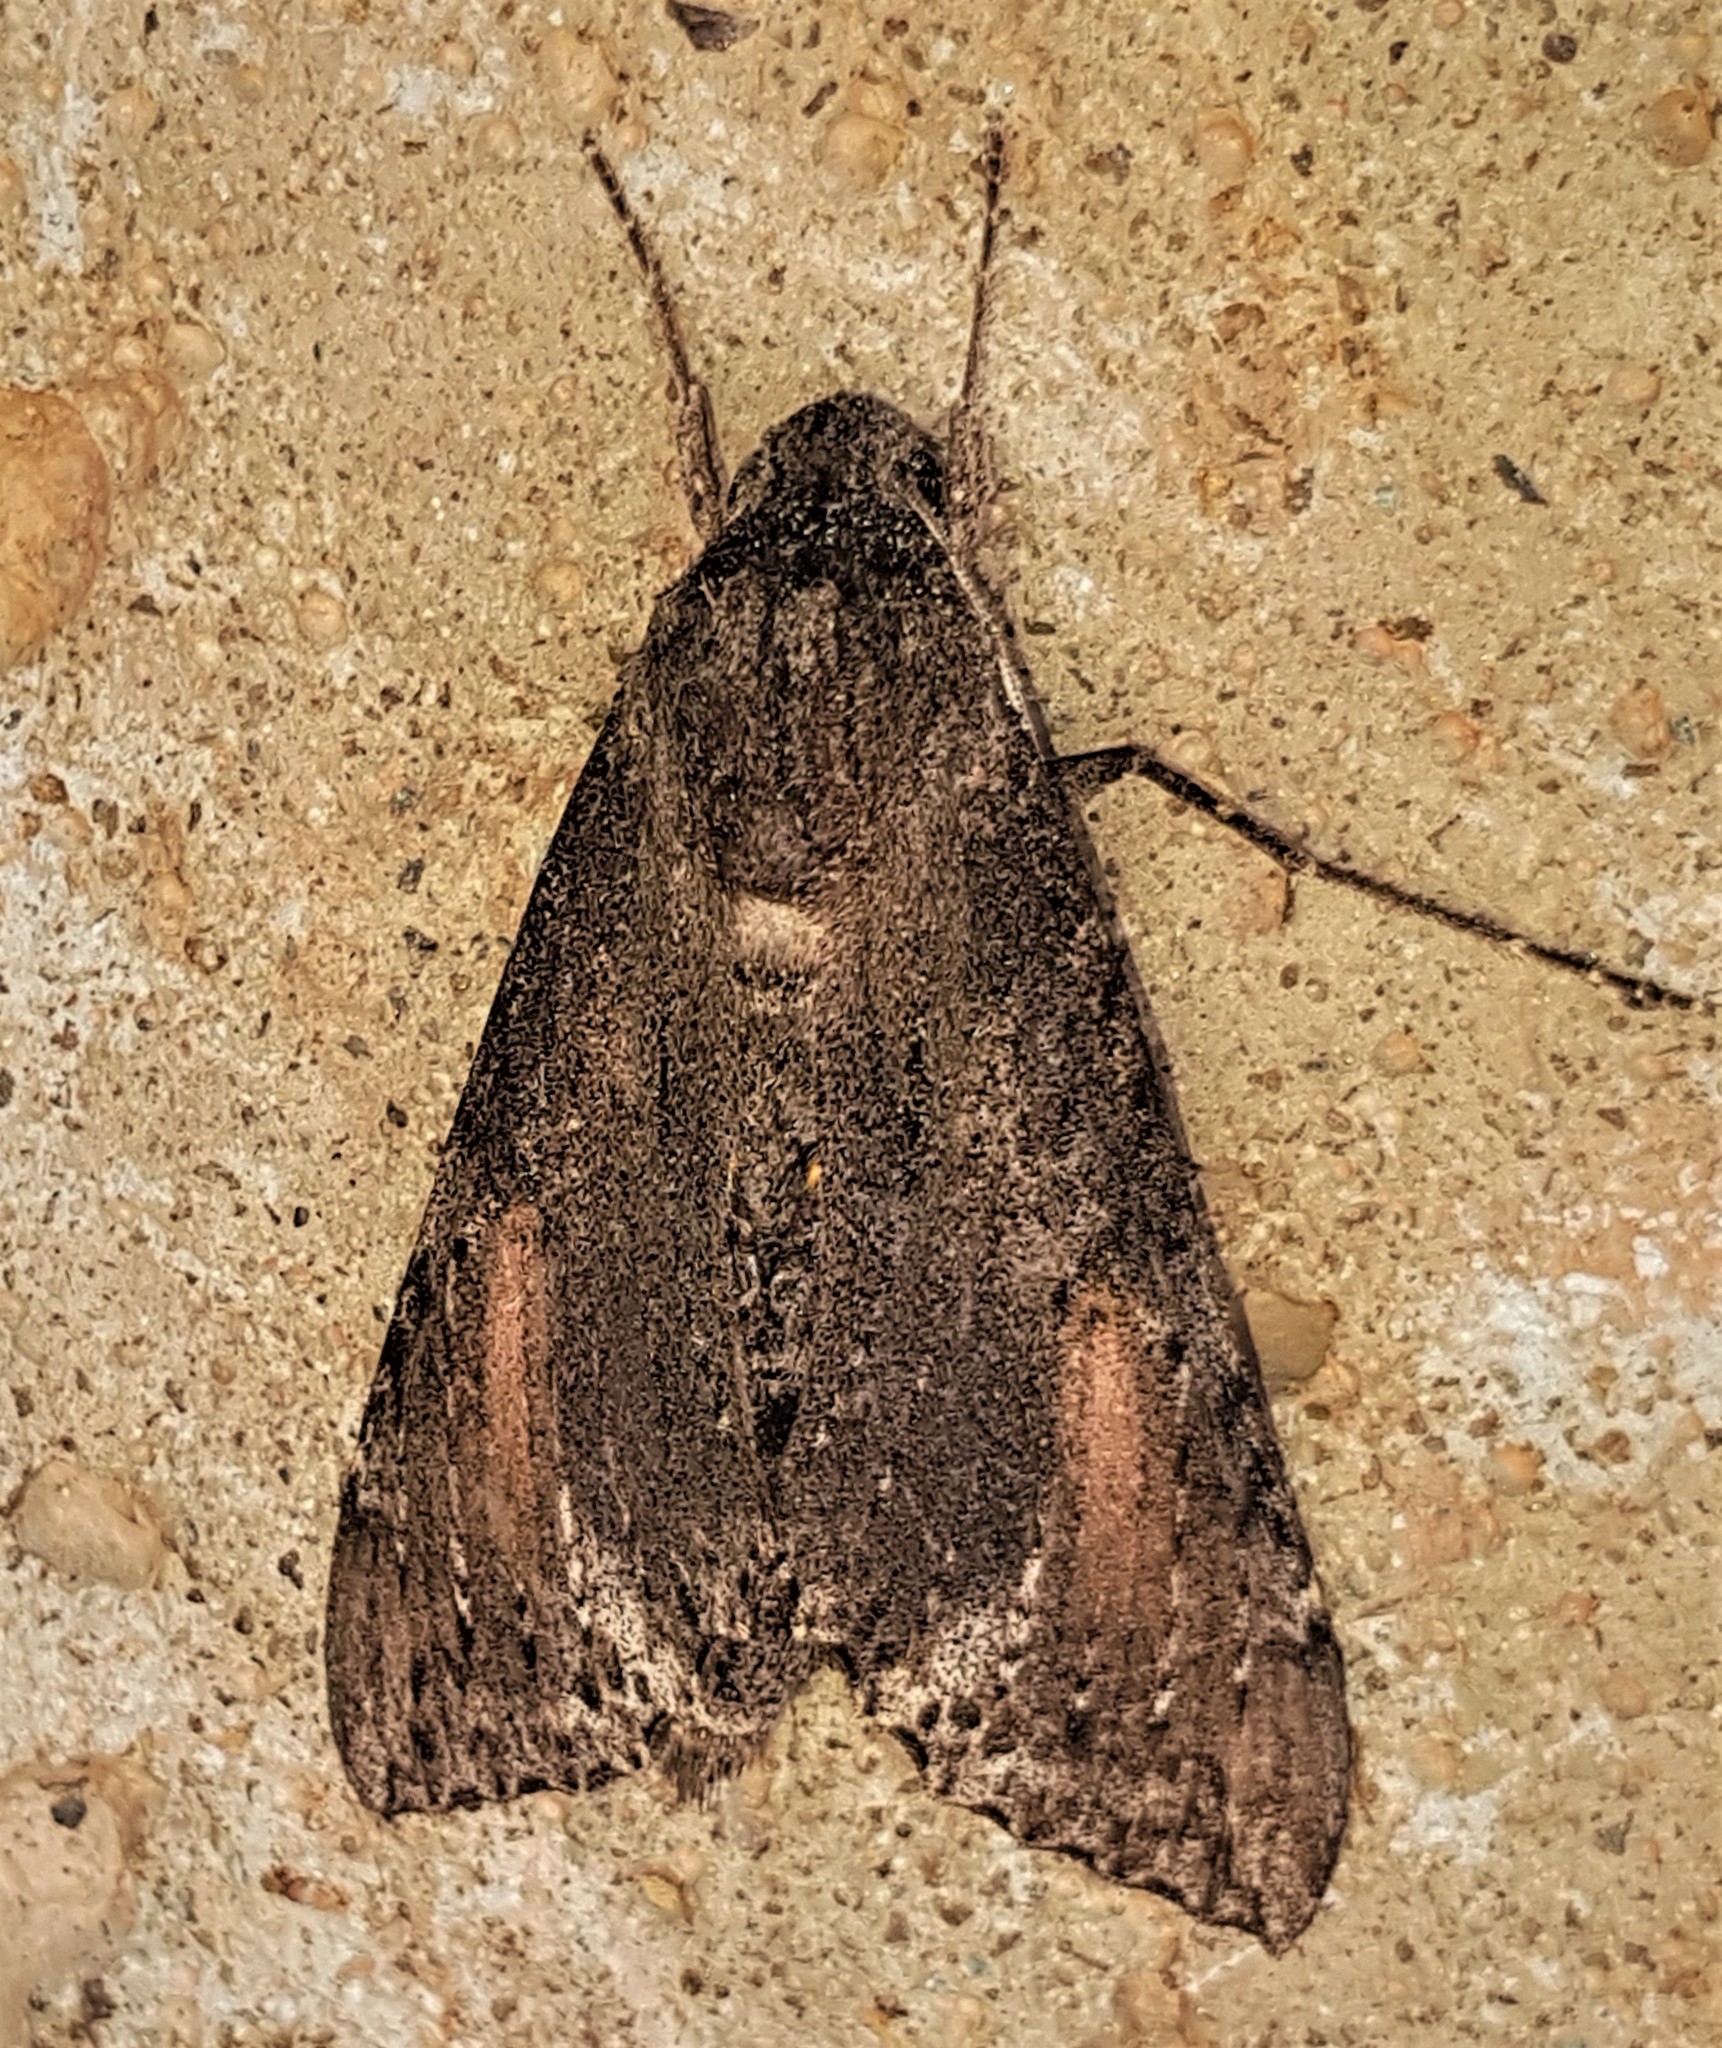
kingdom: Animalia
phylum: Arthropoda
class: Insecta
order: Lepidoptera
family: Sphingidae
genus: Isognathus
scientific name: Isognathus scyron
